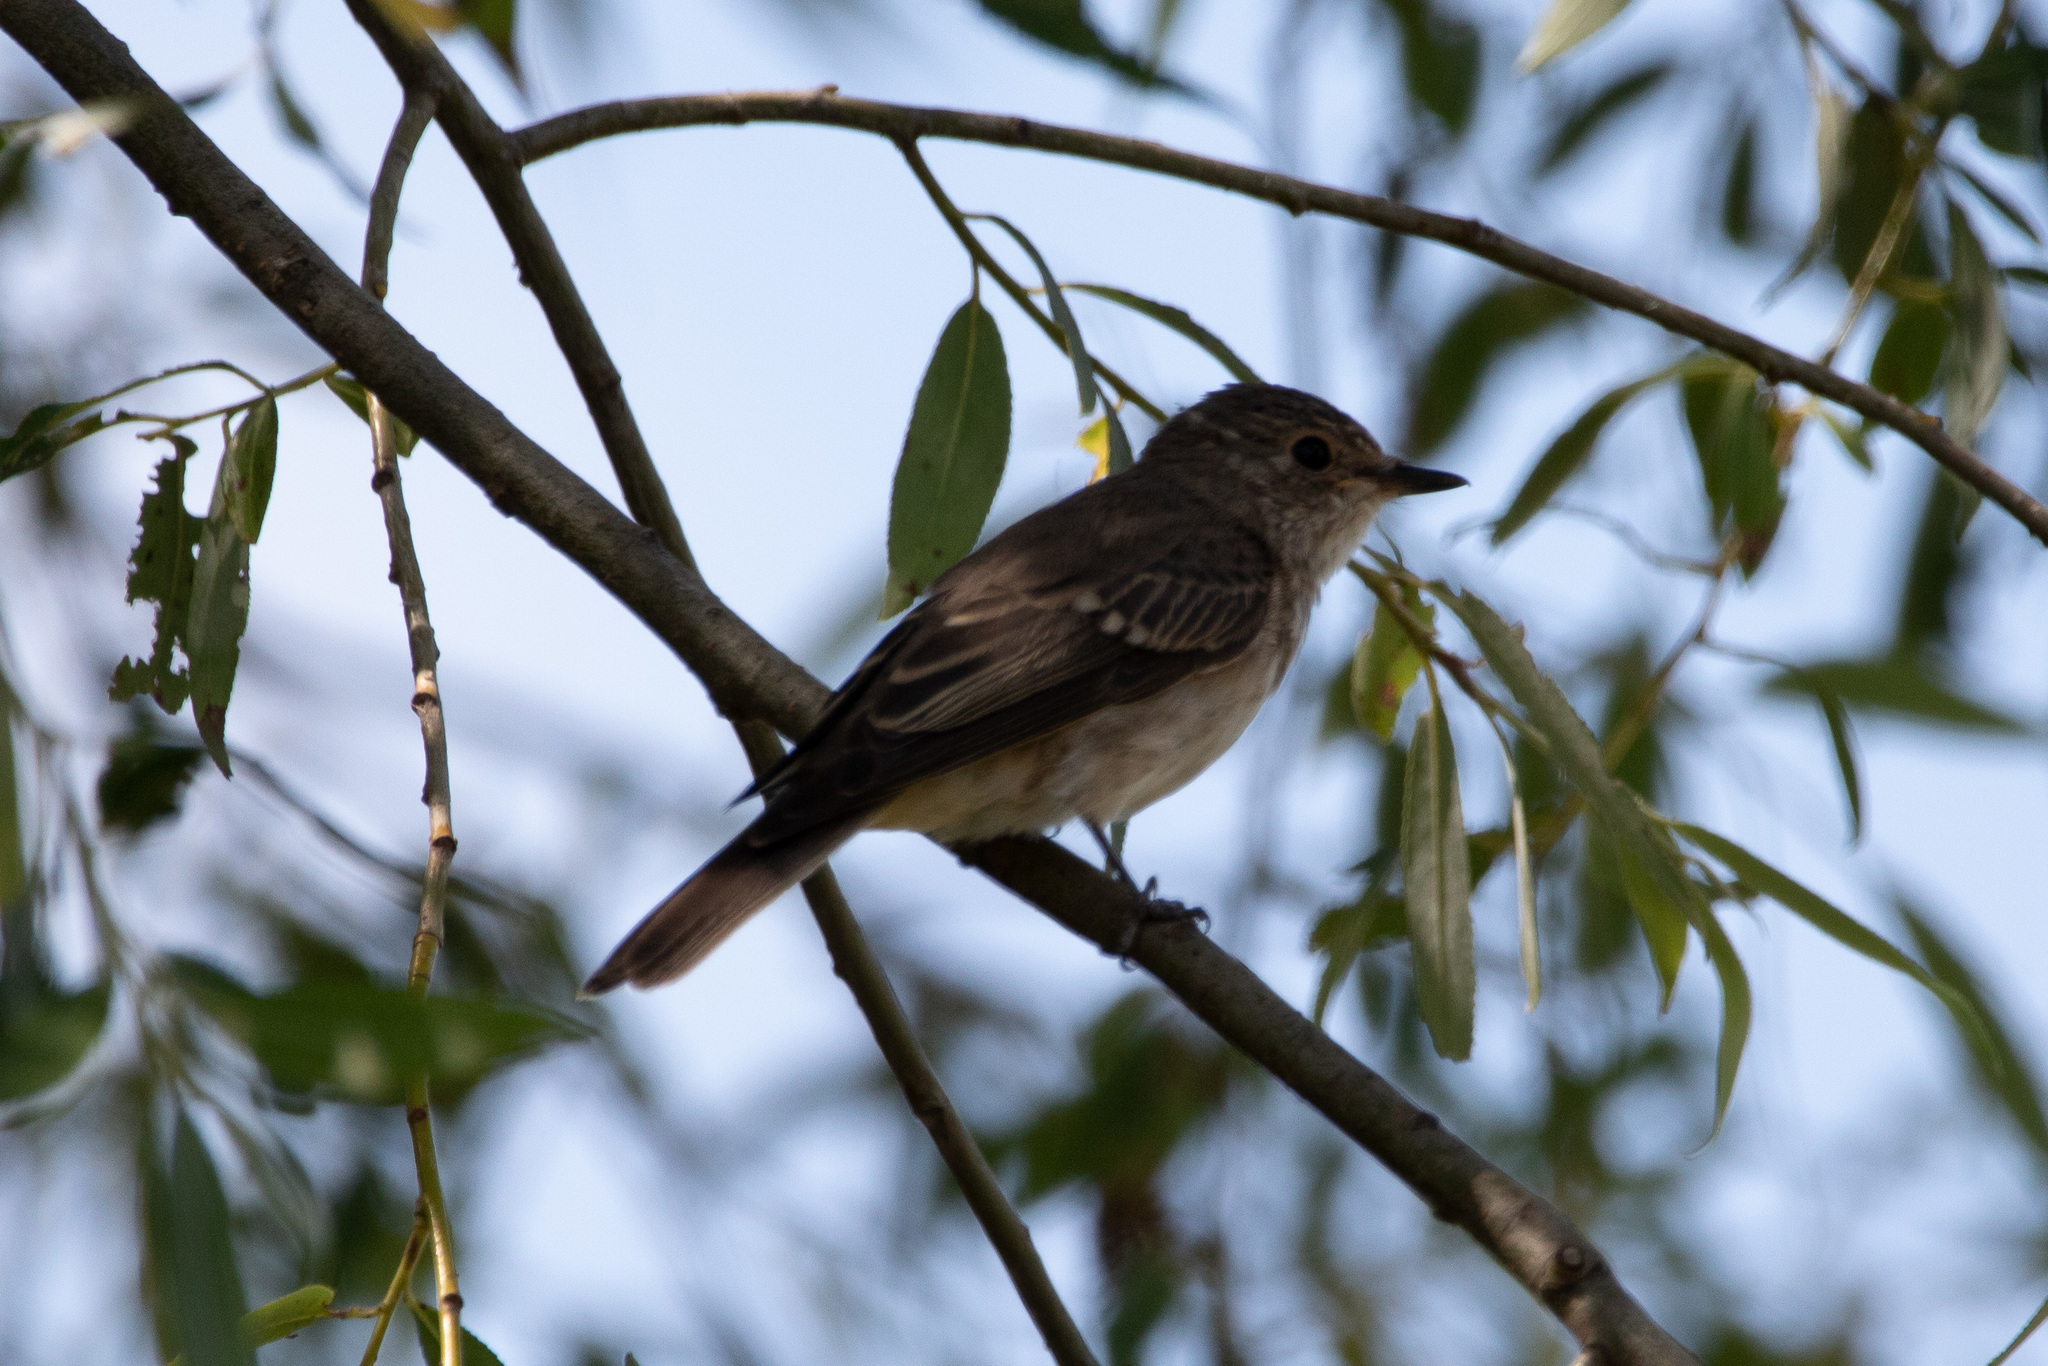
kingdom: Animalia
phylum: Chordata
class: Aves
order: Passeriformes
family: Muscicapidae
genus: Muscicapa
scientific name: Muscicapa striata
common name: Spotted flycatcher
